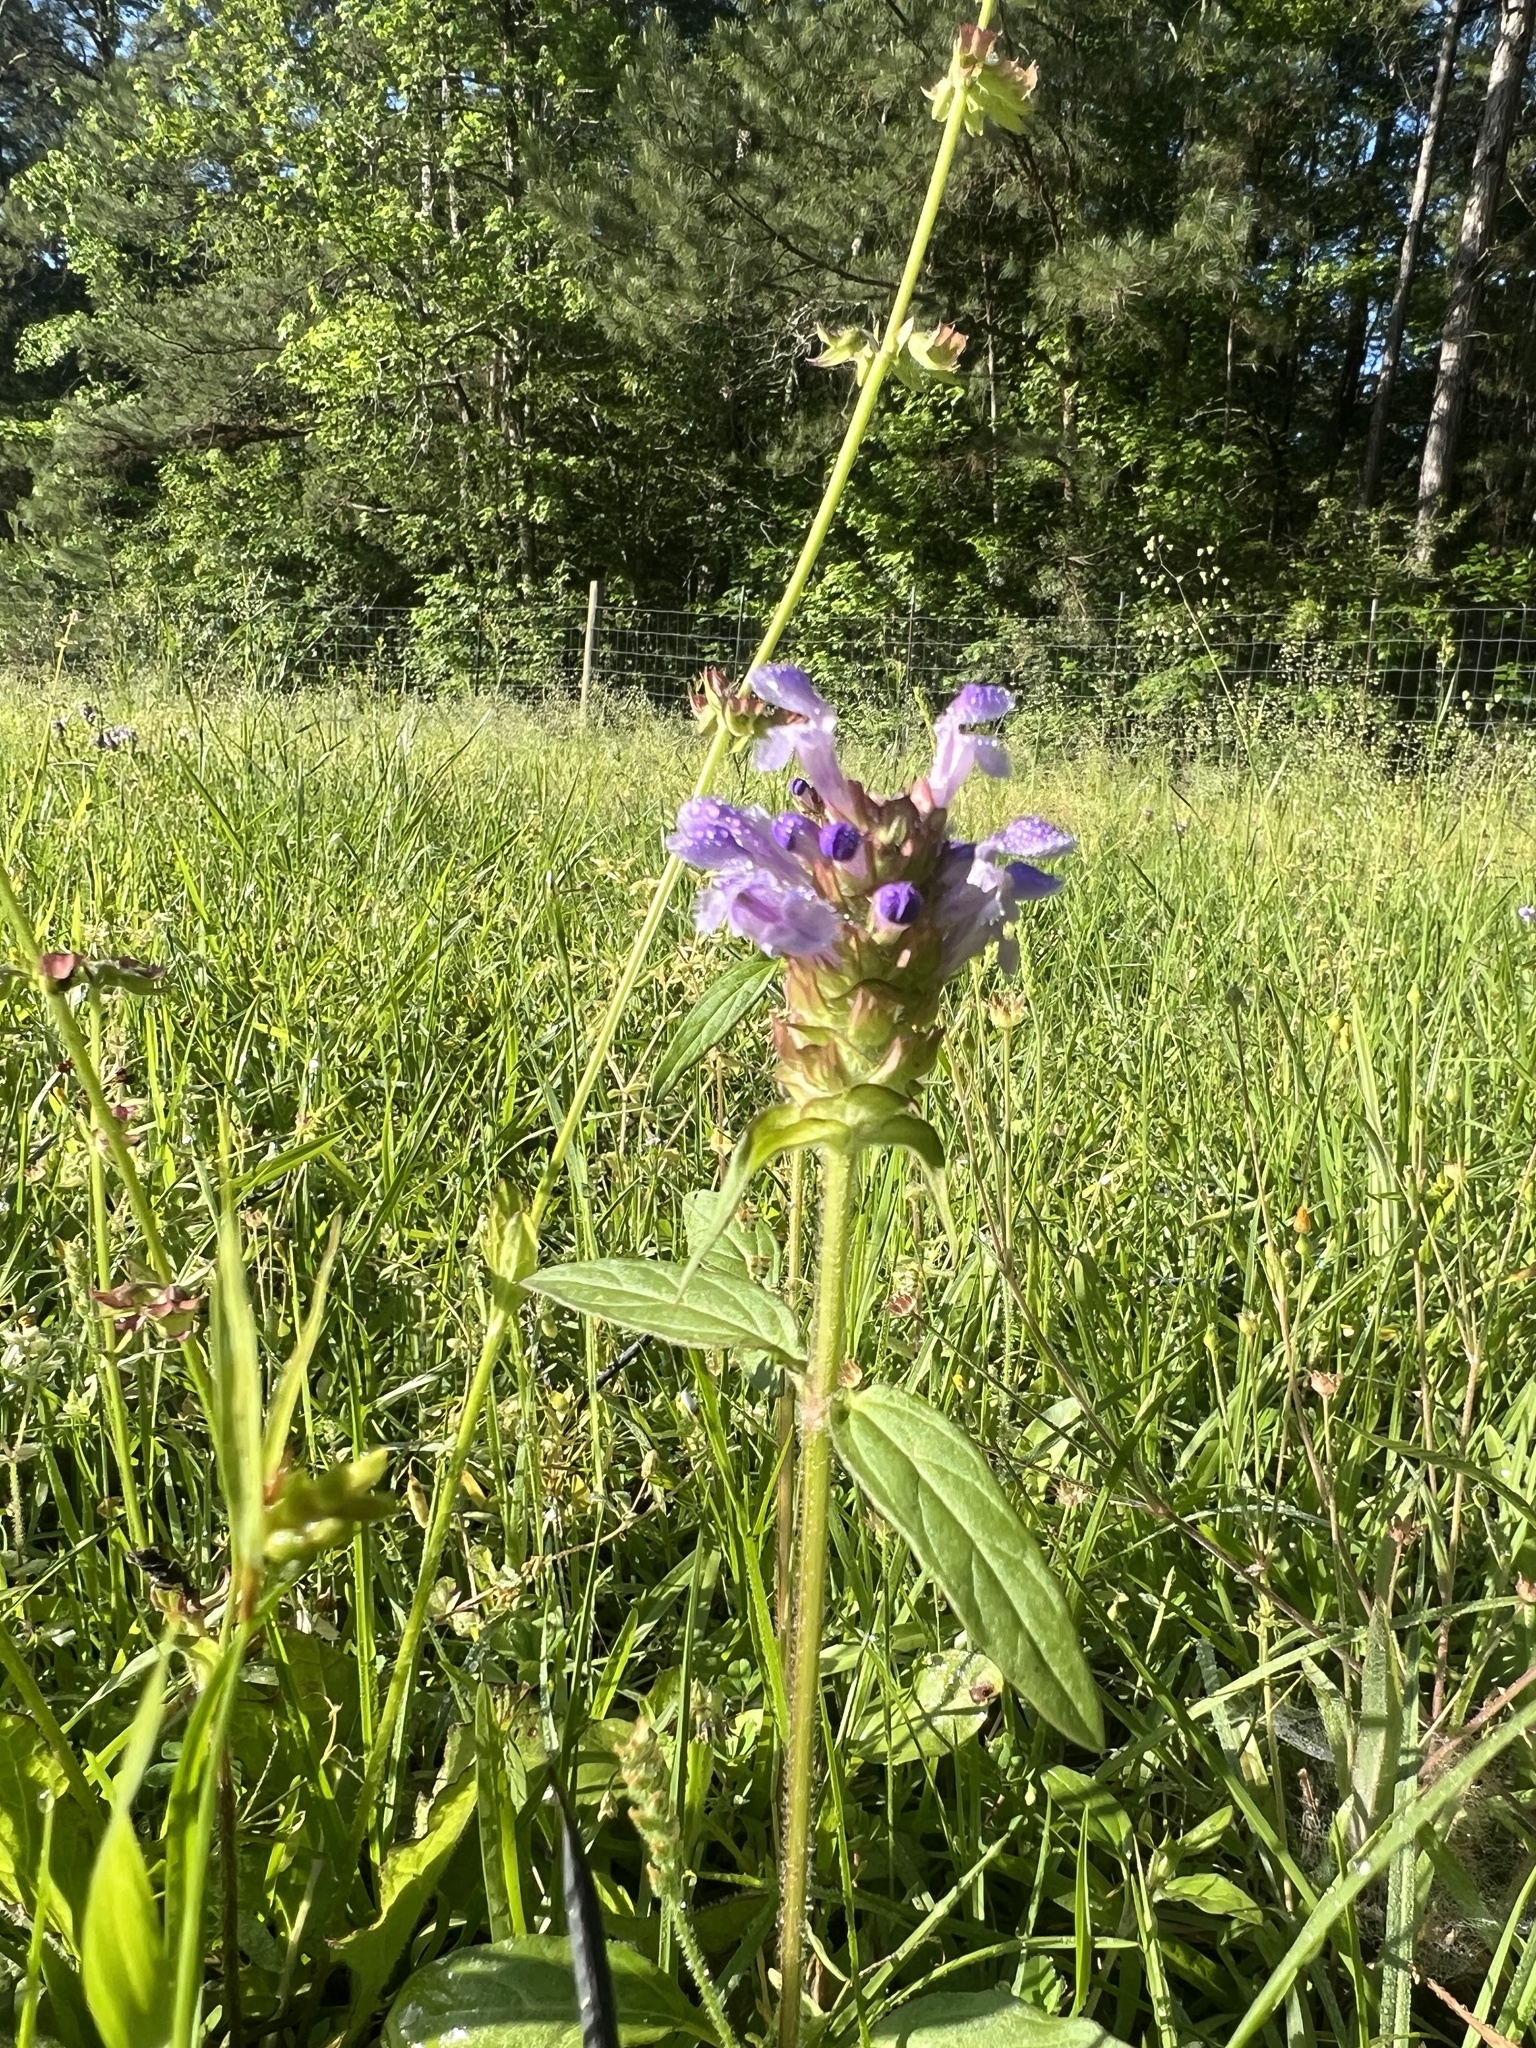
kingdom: Plantae
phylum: Tracheophyta
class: Magnoliopsida
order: Lamiales
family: Lamiaceae
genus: Prunella
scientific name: Prunella vulgaris
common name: Heal-all
